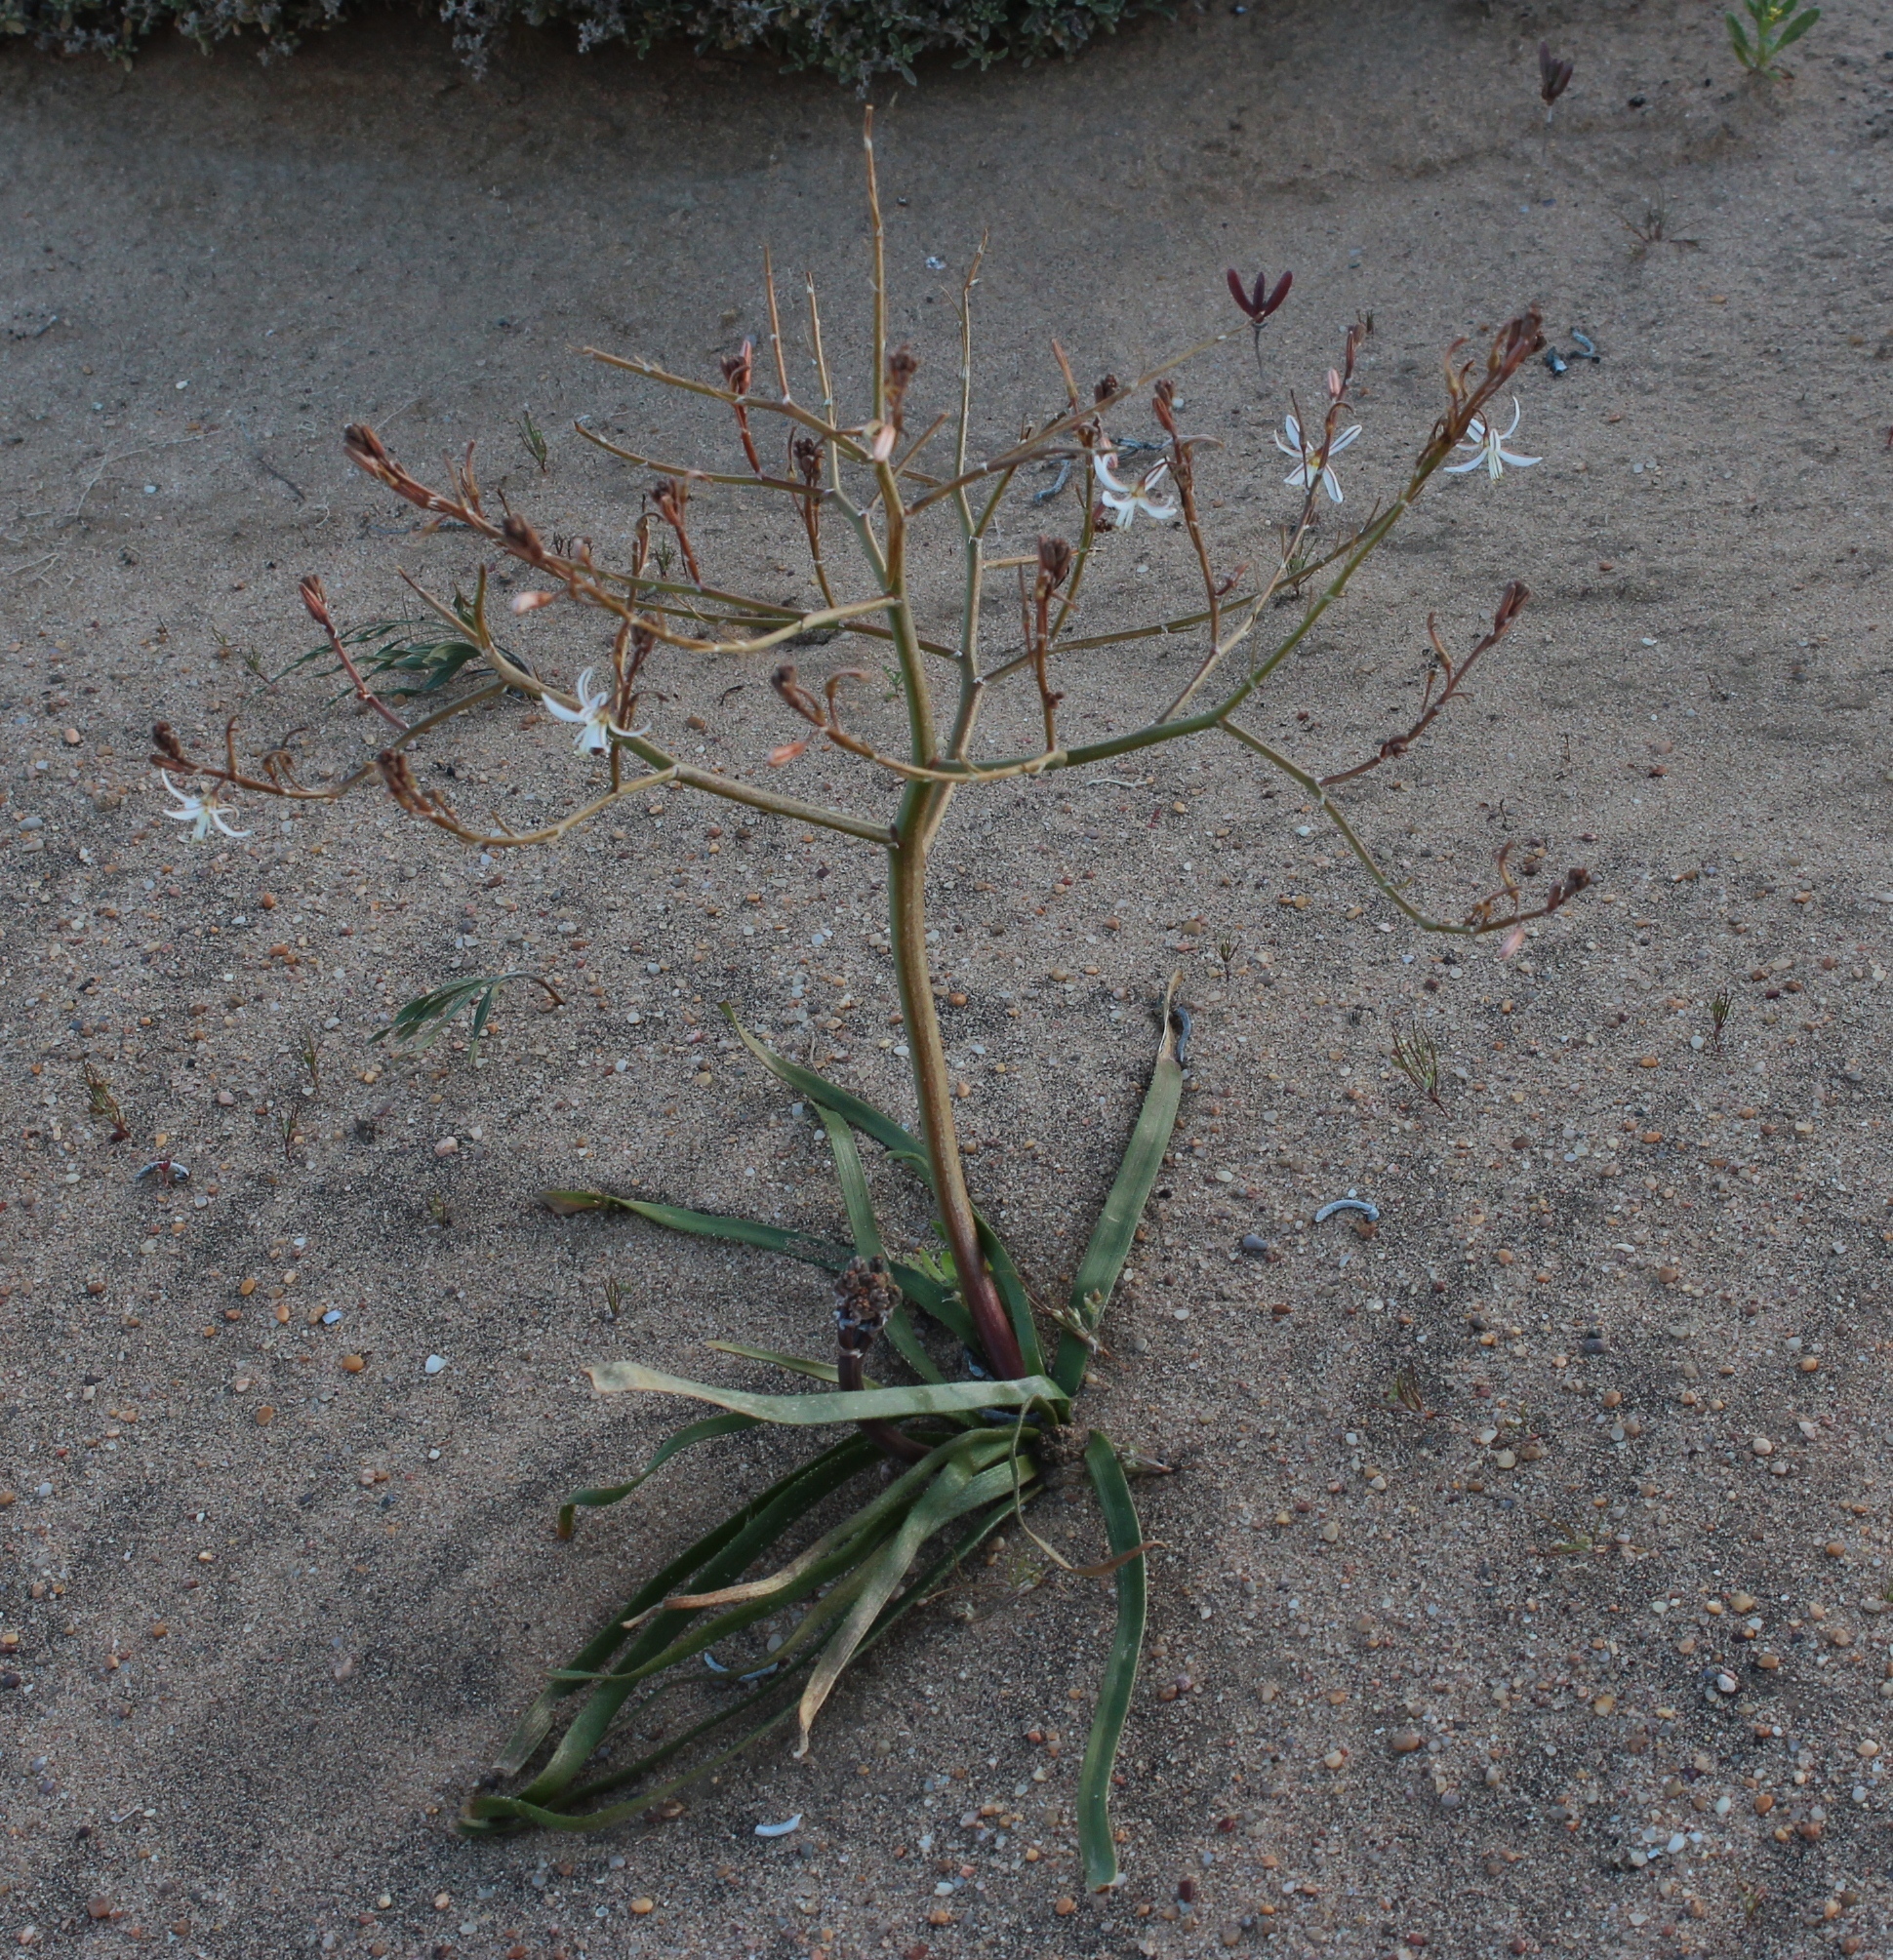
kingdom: Plantae
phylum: Tracheophyta
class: Liliopsida
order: Asparagales
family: Asphodelaceae
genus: Trachyandra
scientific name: Trachyandra muricata
